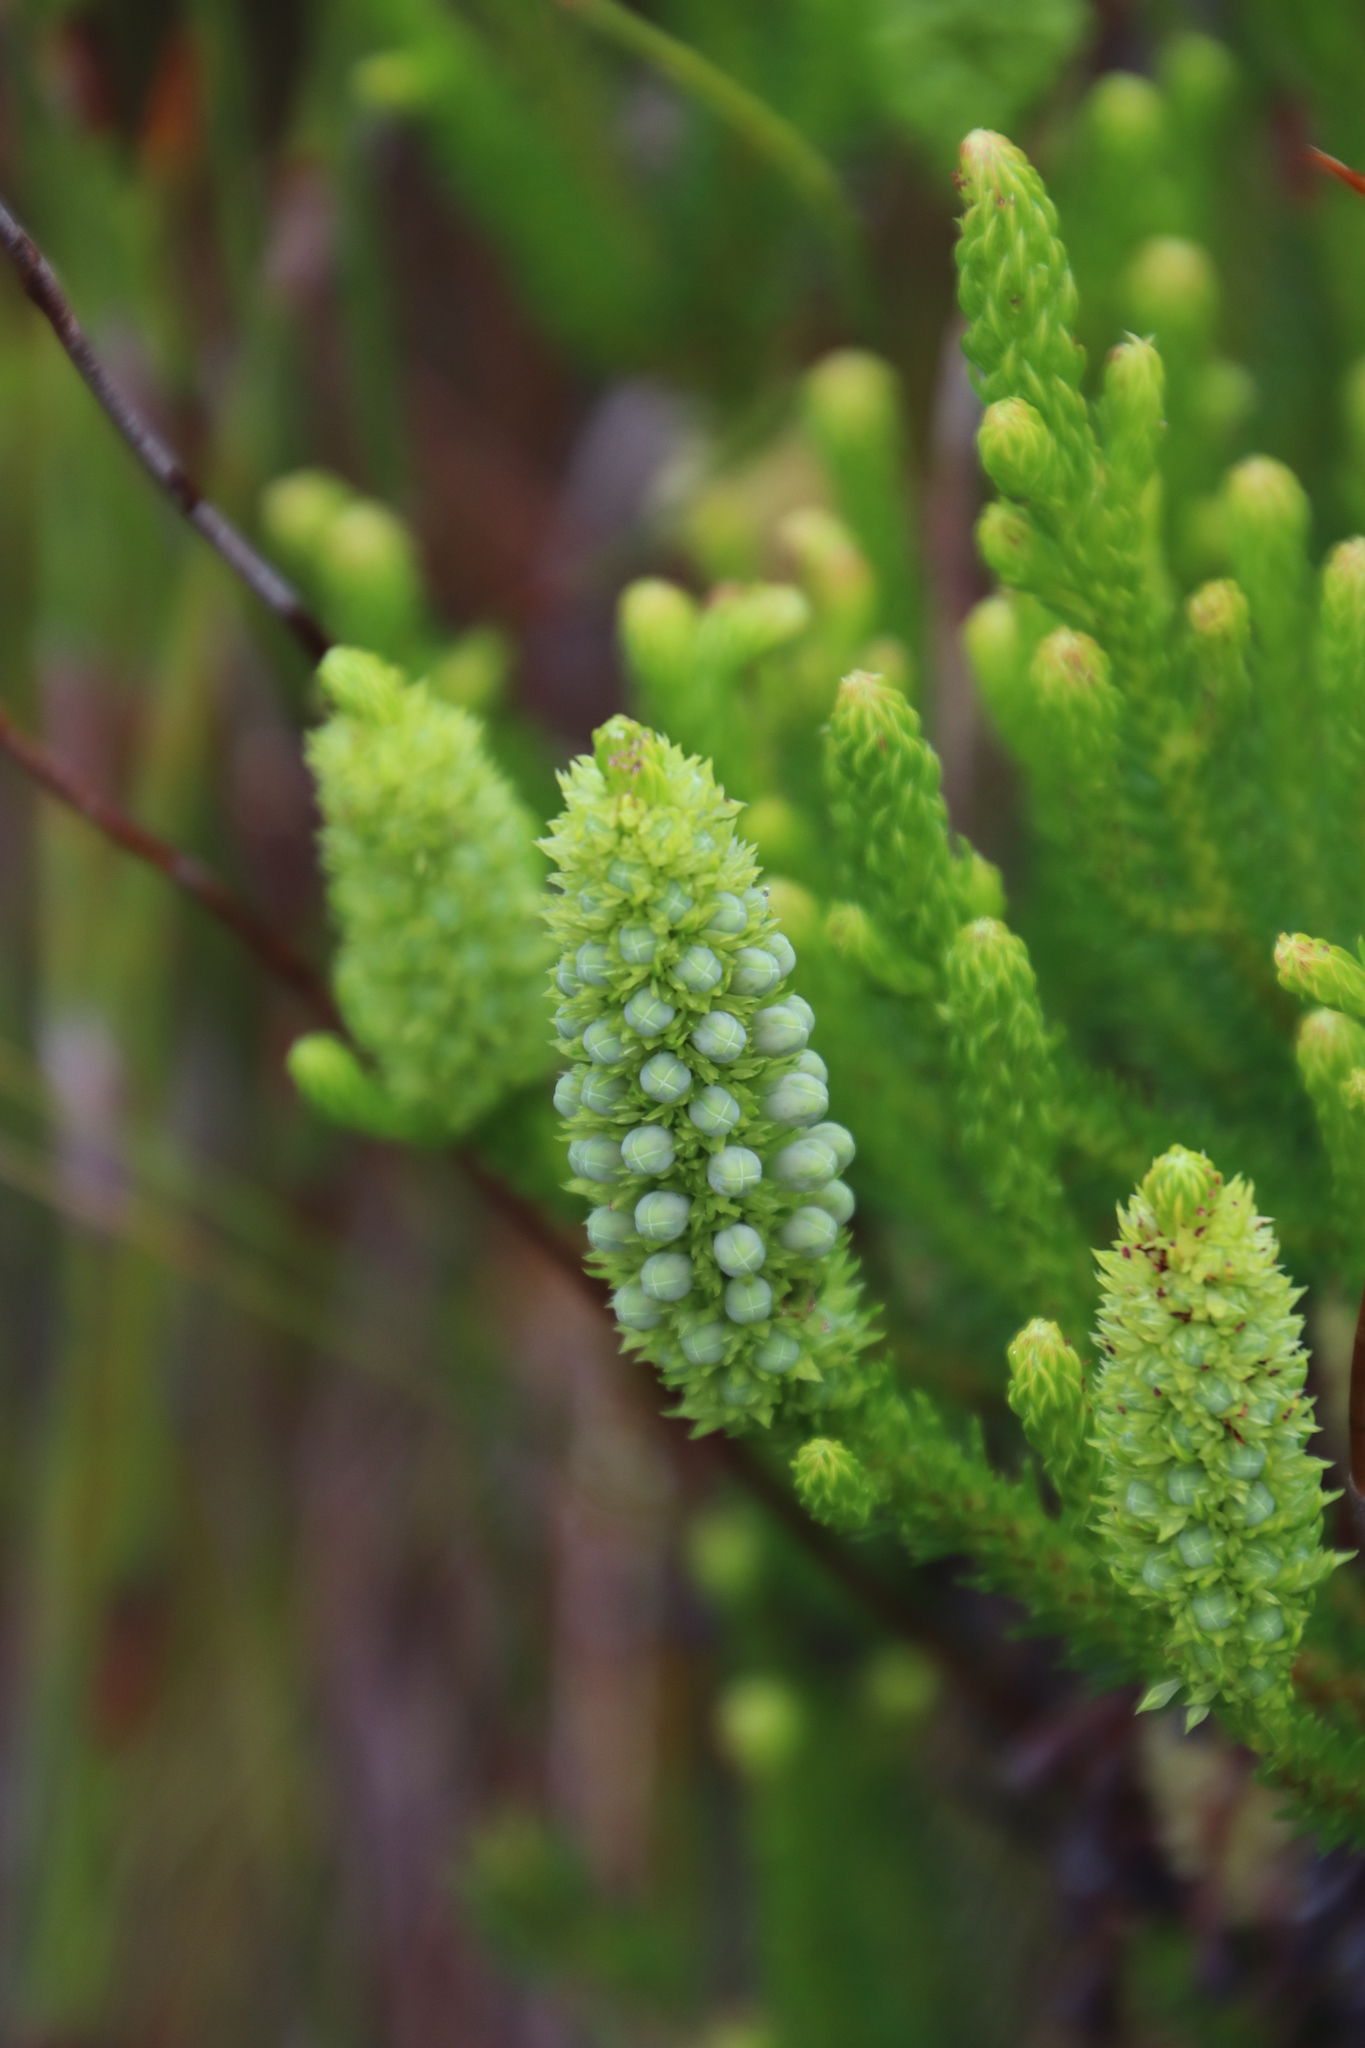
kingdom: Plantae
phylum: Tracheophyta
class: Magnoliopsida
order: Ericales
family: Ericaceae
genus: Erica
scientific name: Erica sessiliflora
